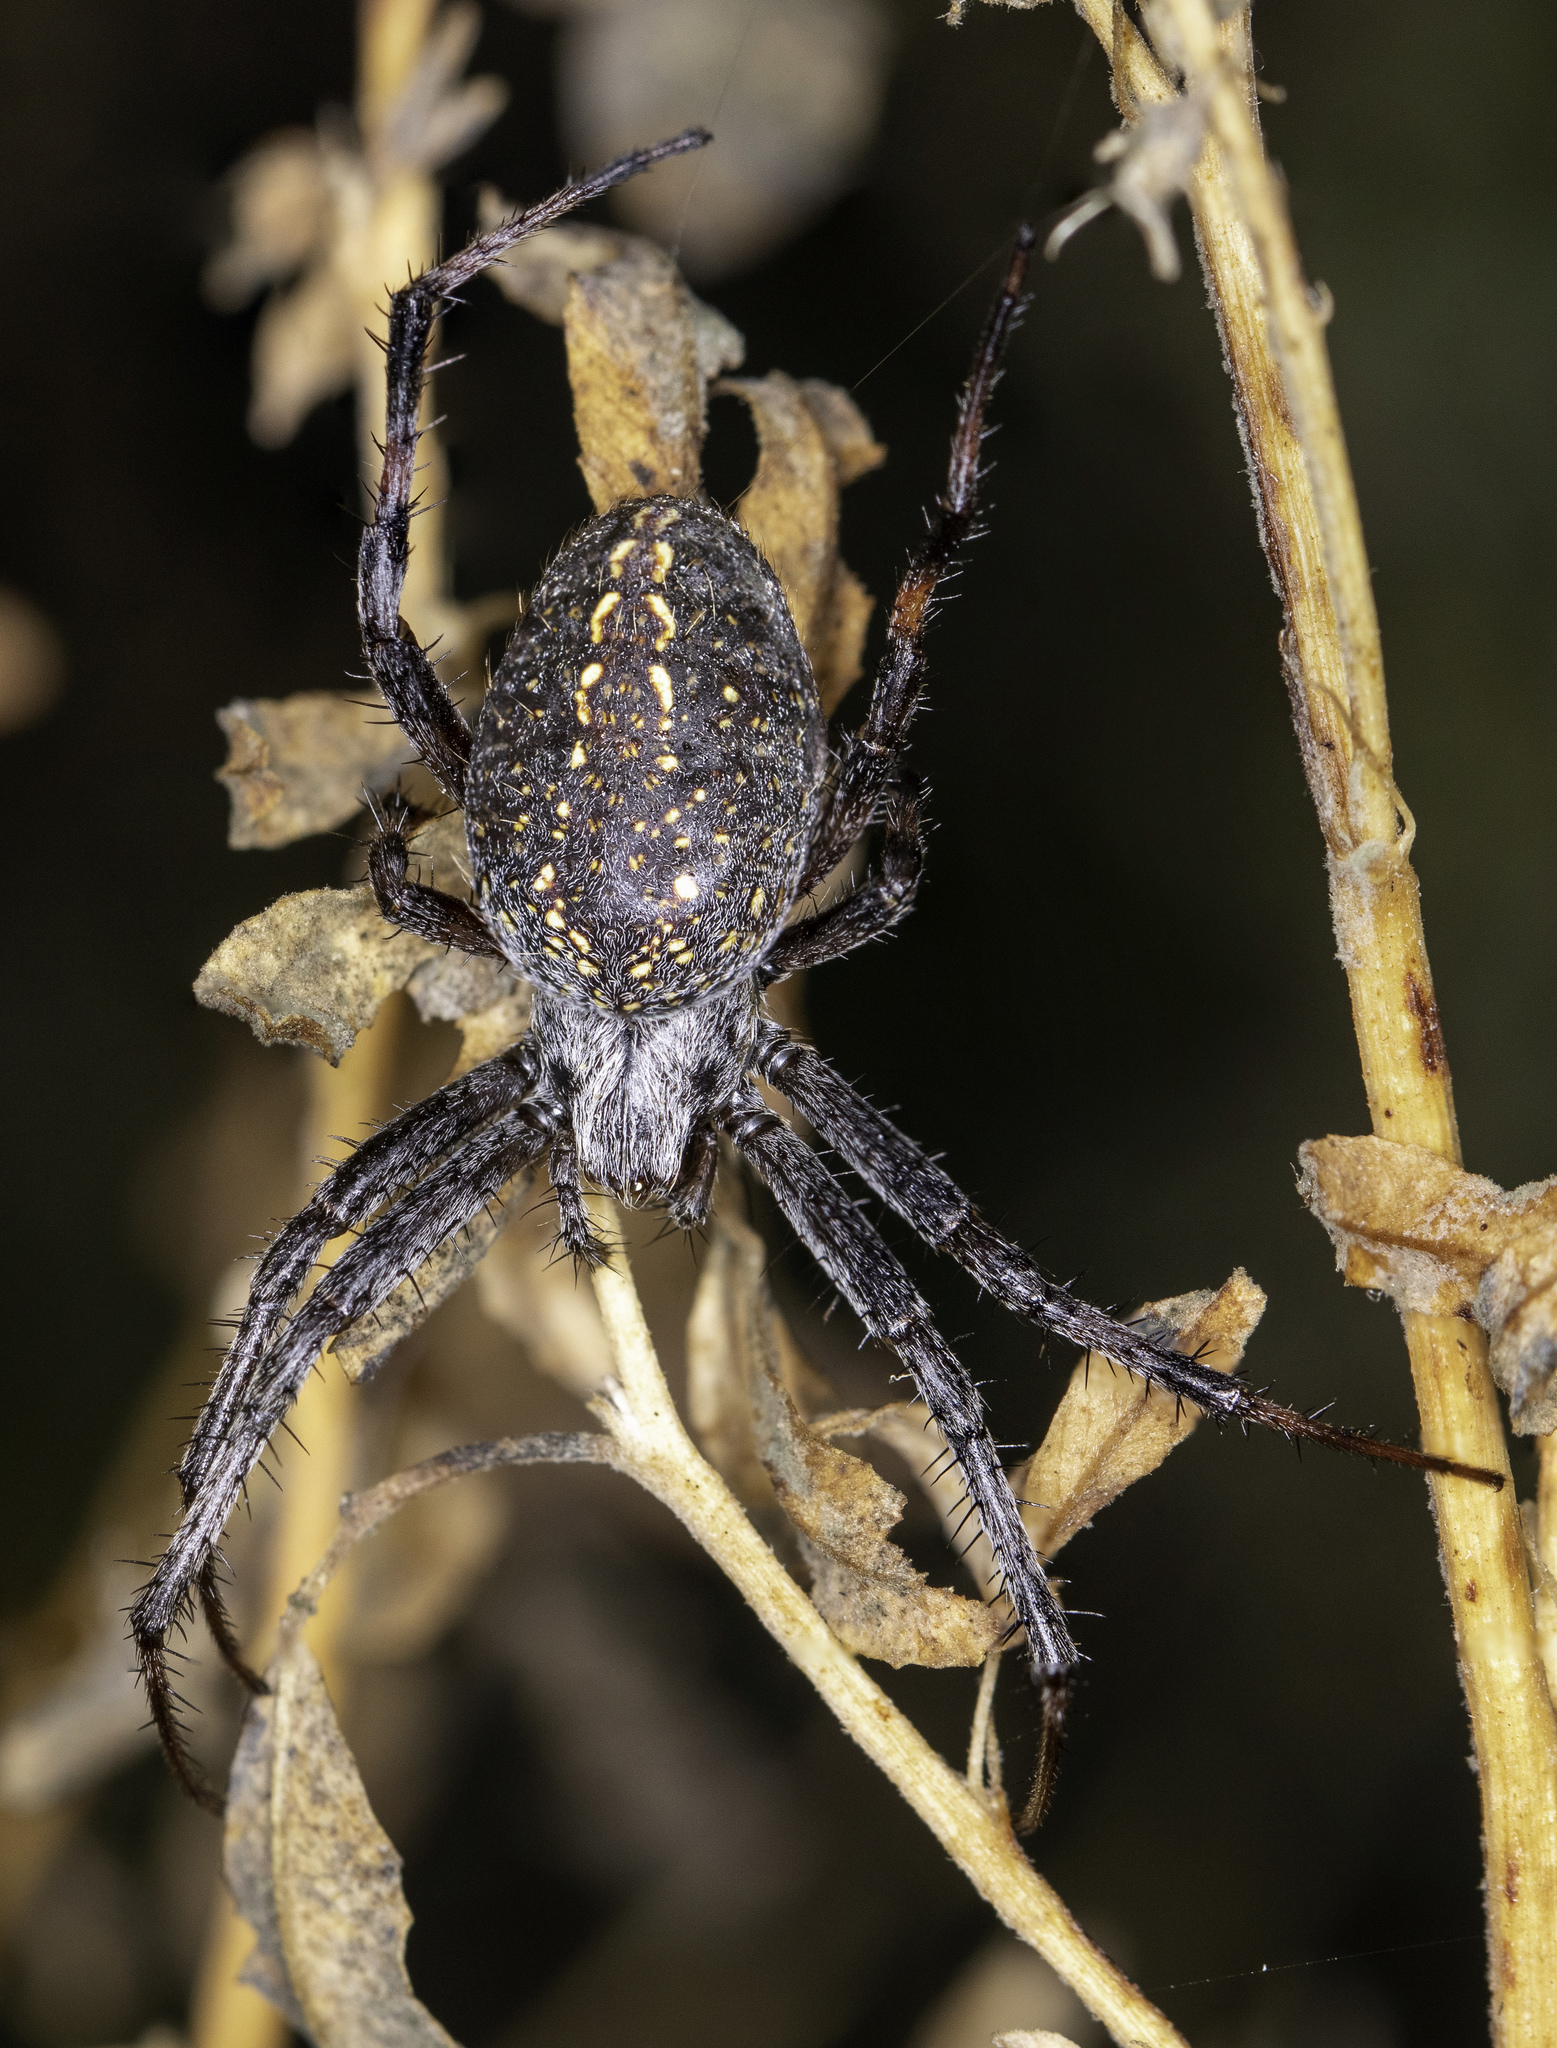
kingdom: Animalia
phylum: Arthropoda
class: Arachnida
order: Araneae
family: Araneidae
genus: Neoscona
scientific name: Neoscona oaxacensis
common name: Orb weavers
